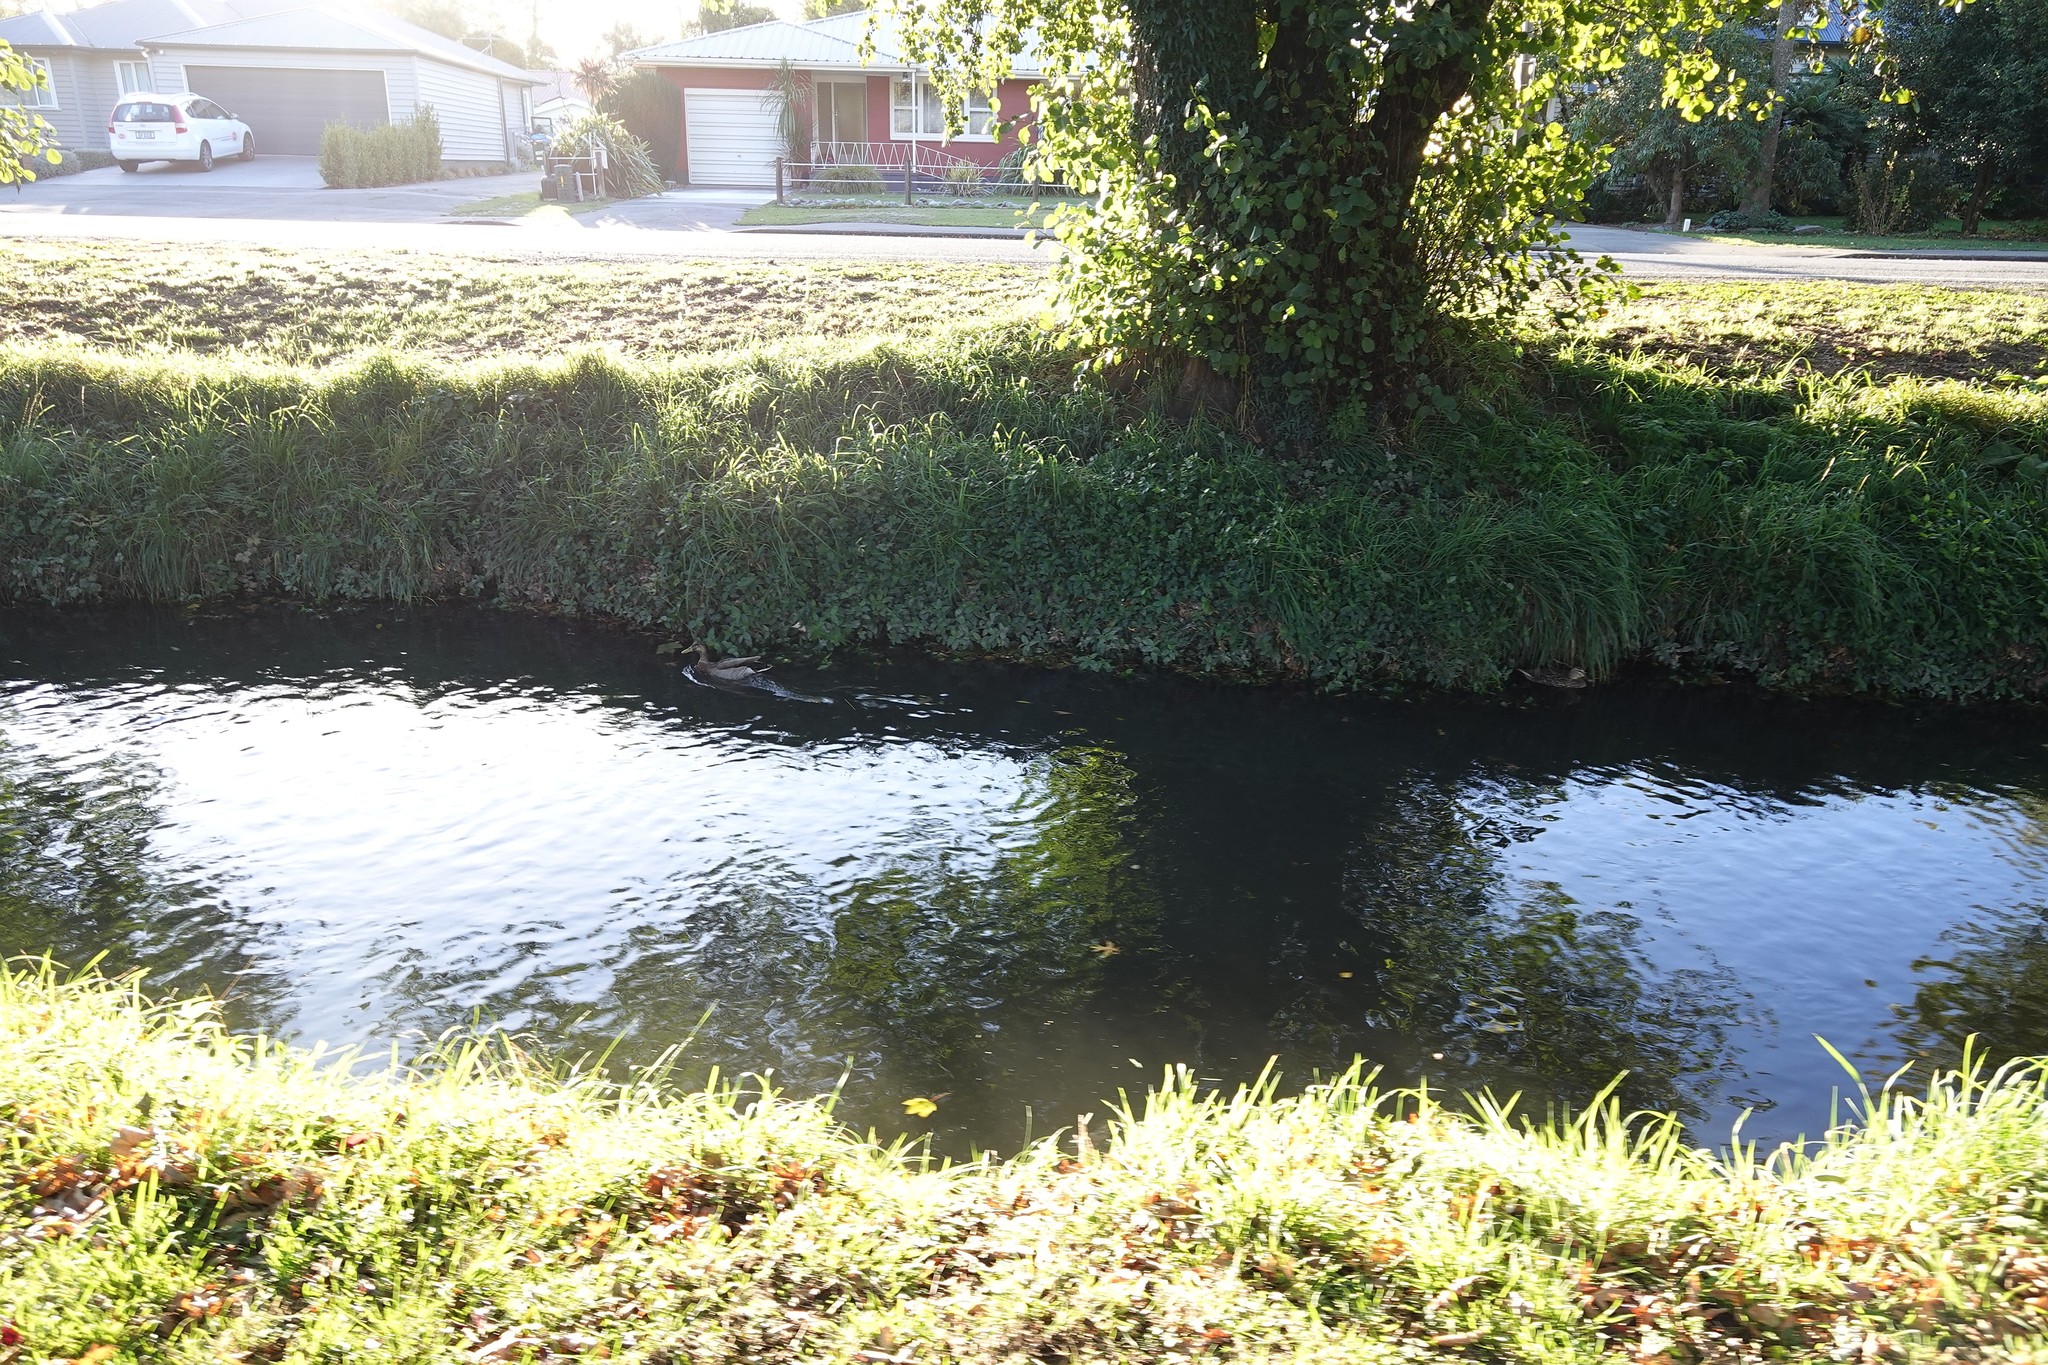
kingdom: Animalia
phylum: Chordata
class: Aves
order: Anseriformes
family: Anatidae
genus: Anas
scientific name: Anas platyrhynchos
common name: Mallard
